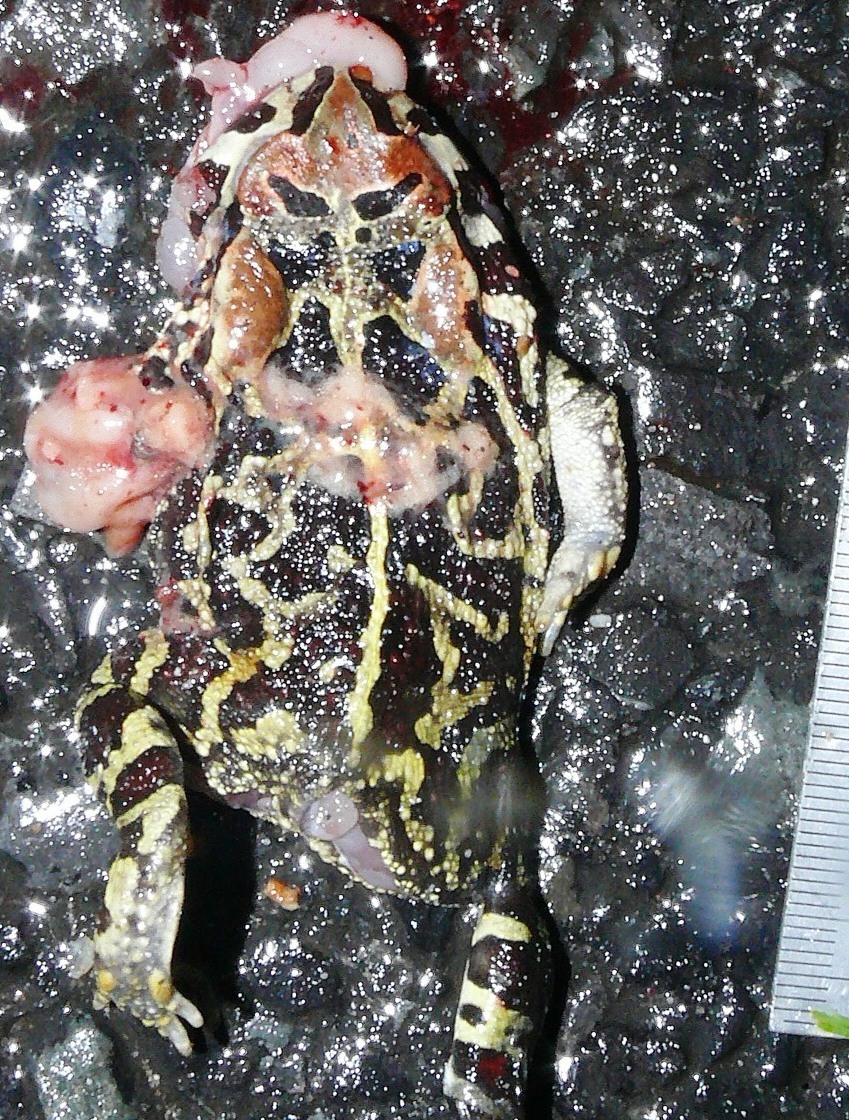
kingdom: Animalia
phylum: Chordata
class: Amphibia
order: Anura
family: Bufonidae
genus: Sclerophrys
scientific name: Sclerophrys pantherina
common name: Panther toad
